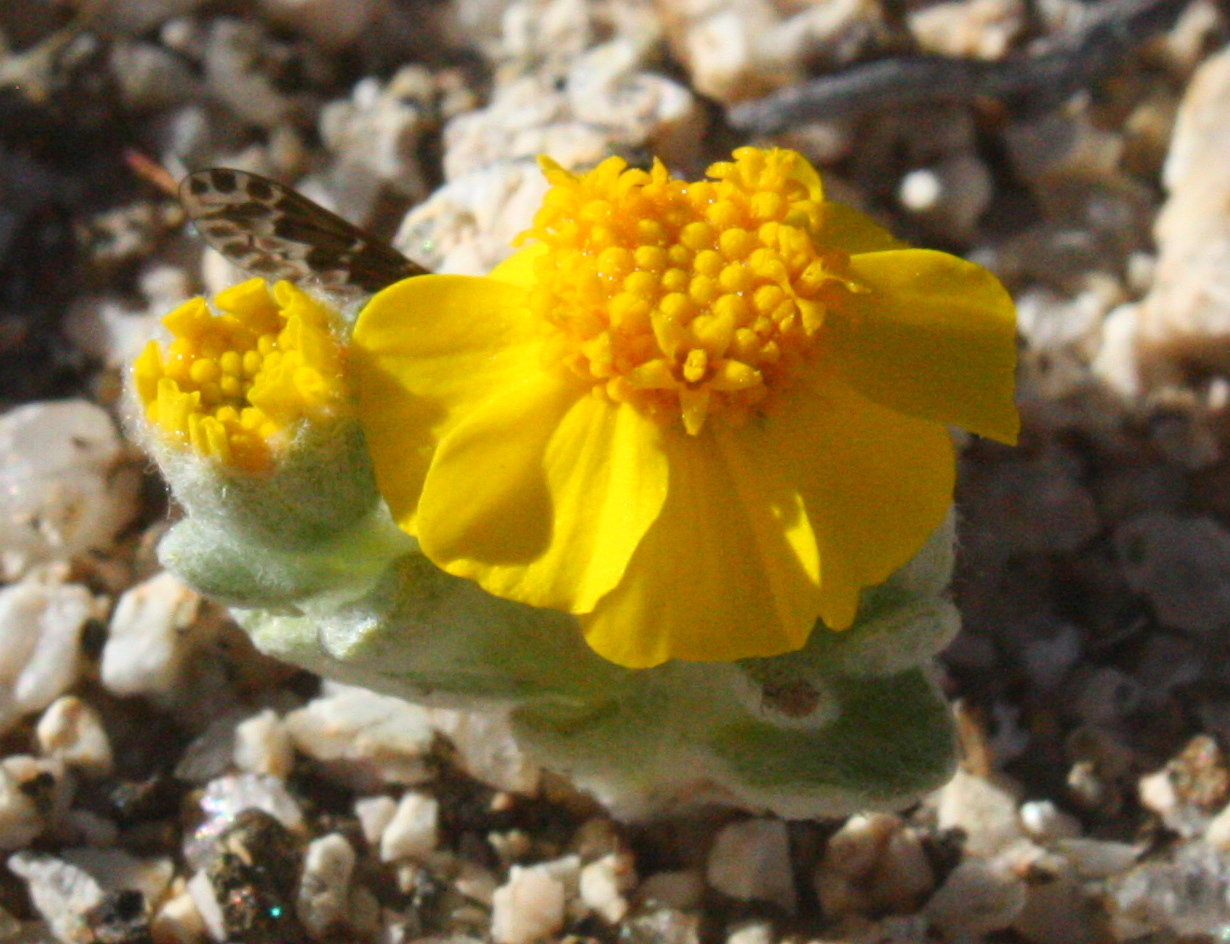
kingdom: Plantae
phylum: Tracheophyta
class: Magnoliopsida
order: Asterales
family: Asteraceae
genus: Eriophyllum
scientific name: Eriophyllum wallacei
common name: Wallace's woolly daisy
